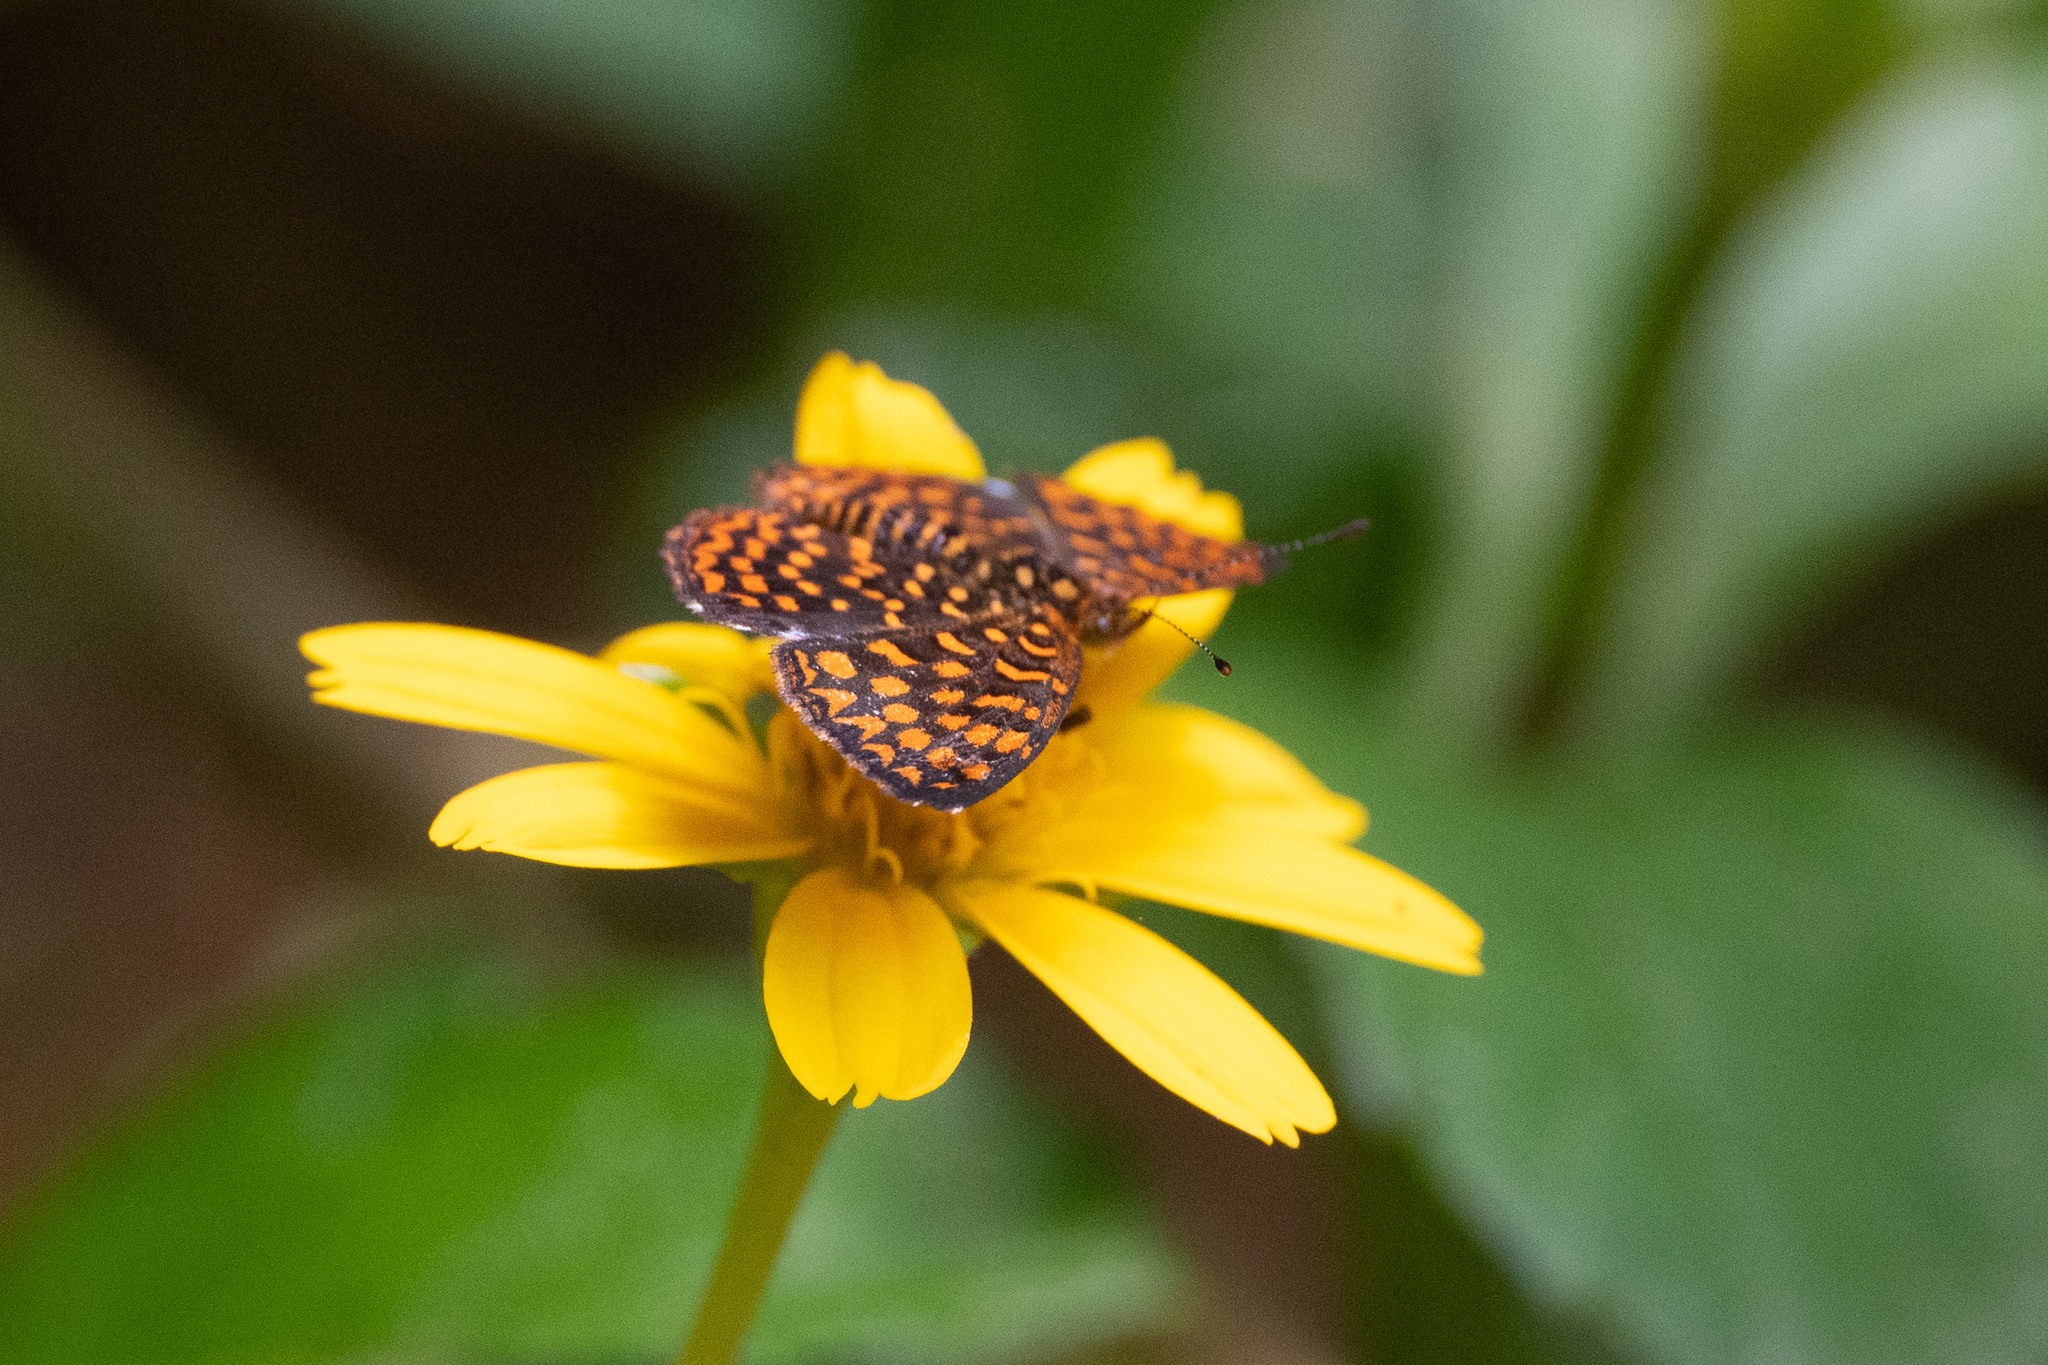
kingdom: Animalia
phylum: Arthropoda
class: Insecta
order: Lepidoptera
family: Nymphalidae
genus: Antillea
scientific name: Antillea pelops
